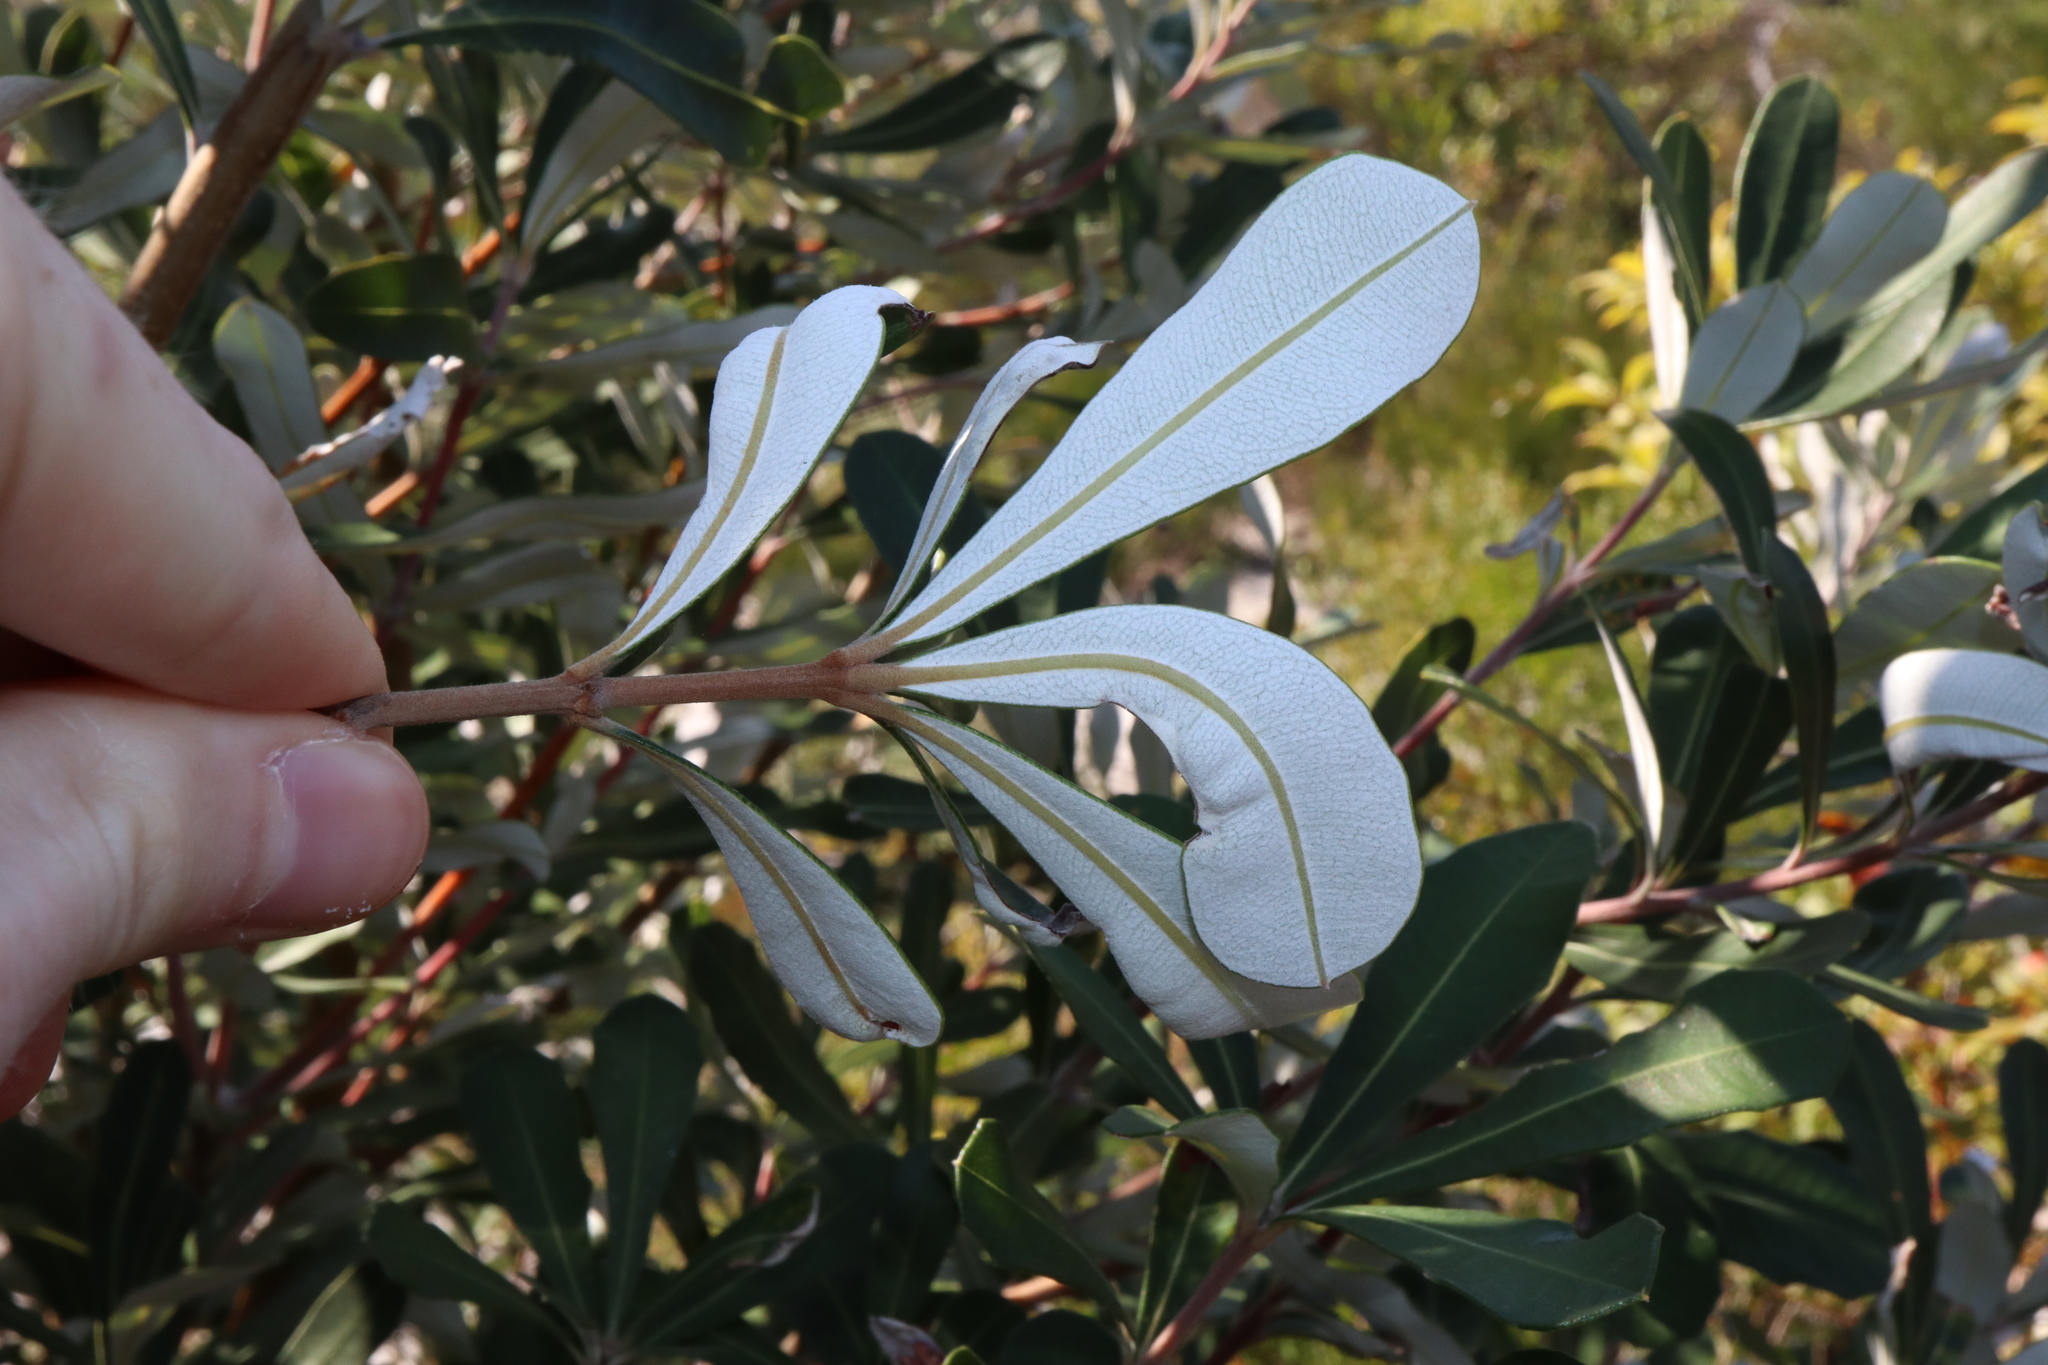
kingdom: Plantae
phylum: Tracheophyta
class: Magnoliopsida
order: Proteales
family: Proteaceae
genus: Banksia
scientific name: Banksia integrifolia
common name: White-honeysuckle
